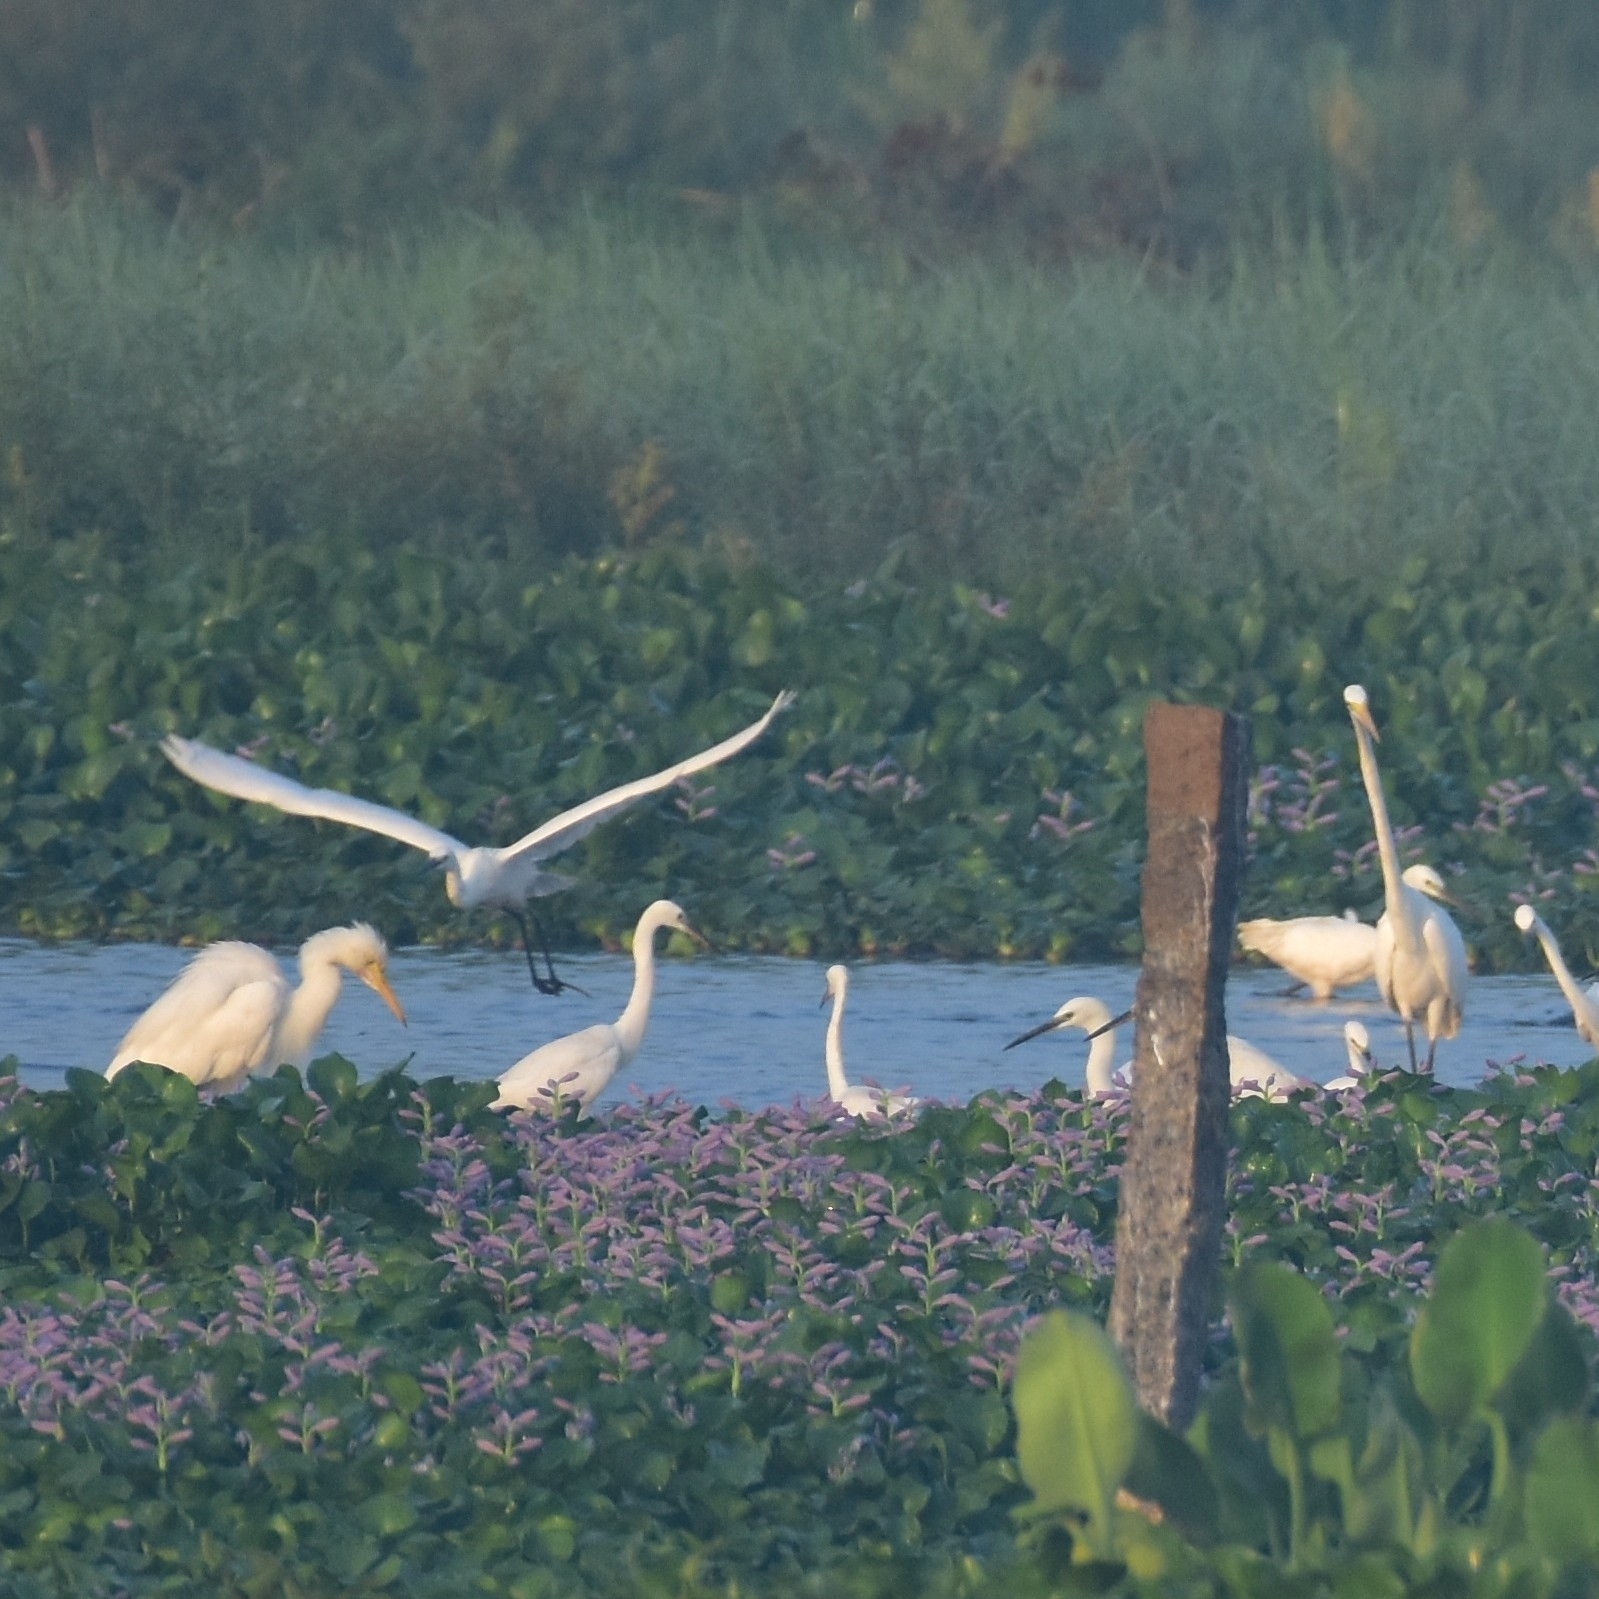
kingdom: Animalia
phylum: Chordata
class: Aves
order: Pelecaniformes
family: Ardeidae
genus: Egretta
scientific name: Egretta intermedia
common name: Intermediate egret
